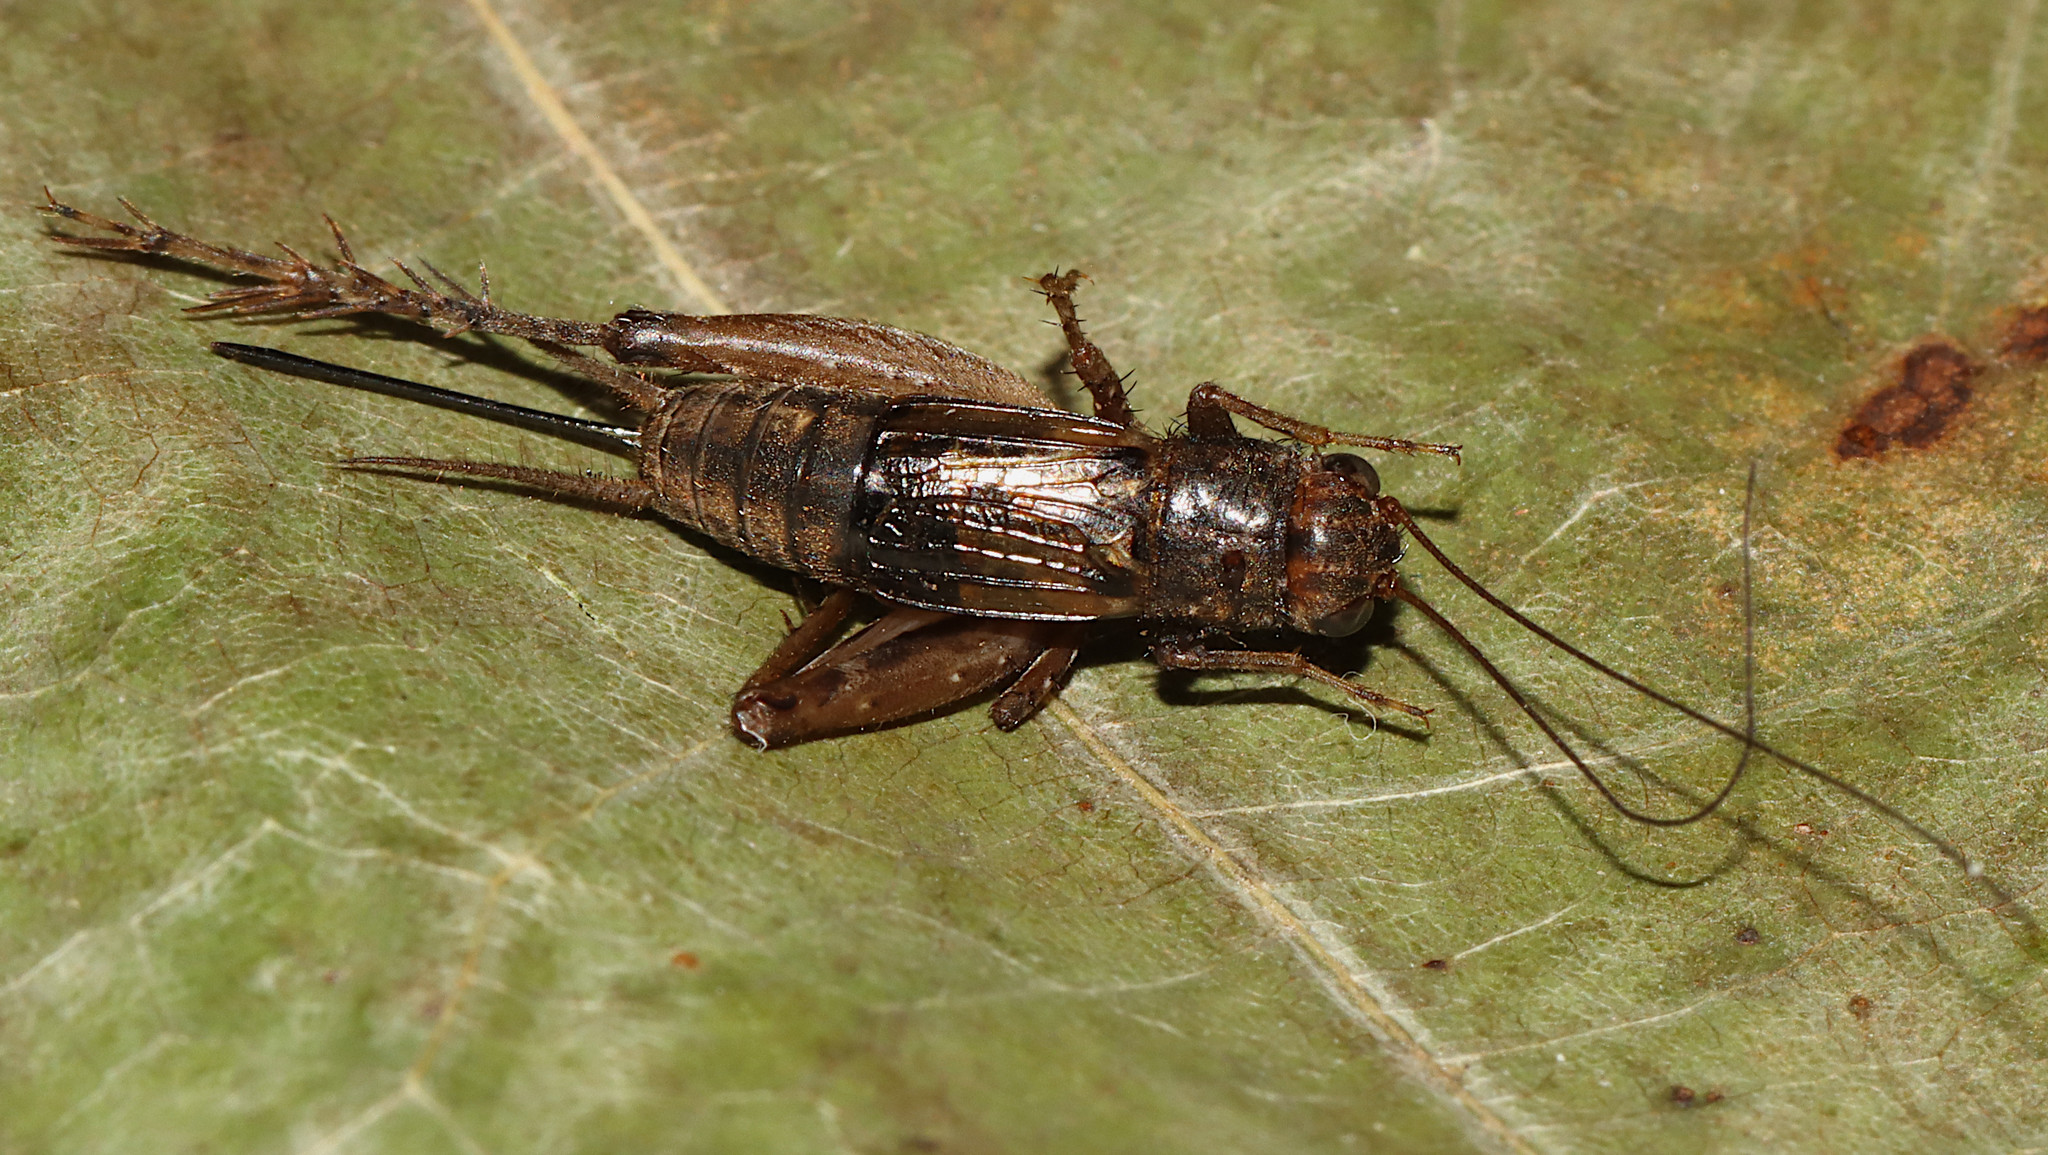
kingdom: Animalia
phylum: Arthropoda
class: Insecta
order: Diptera
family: Asilidae
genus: Triorla
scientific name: Triorla interrupta
